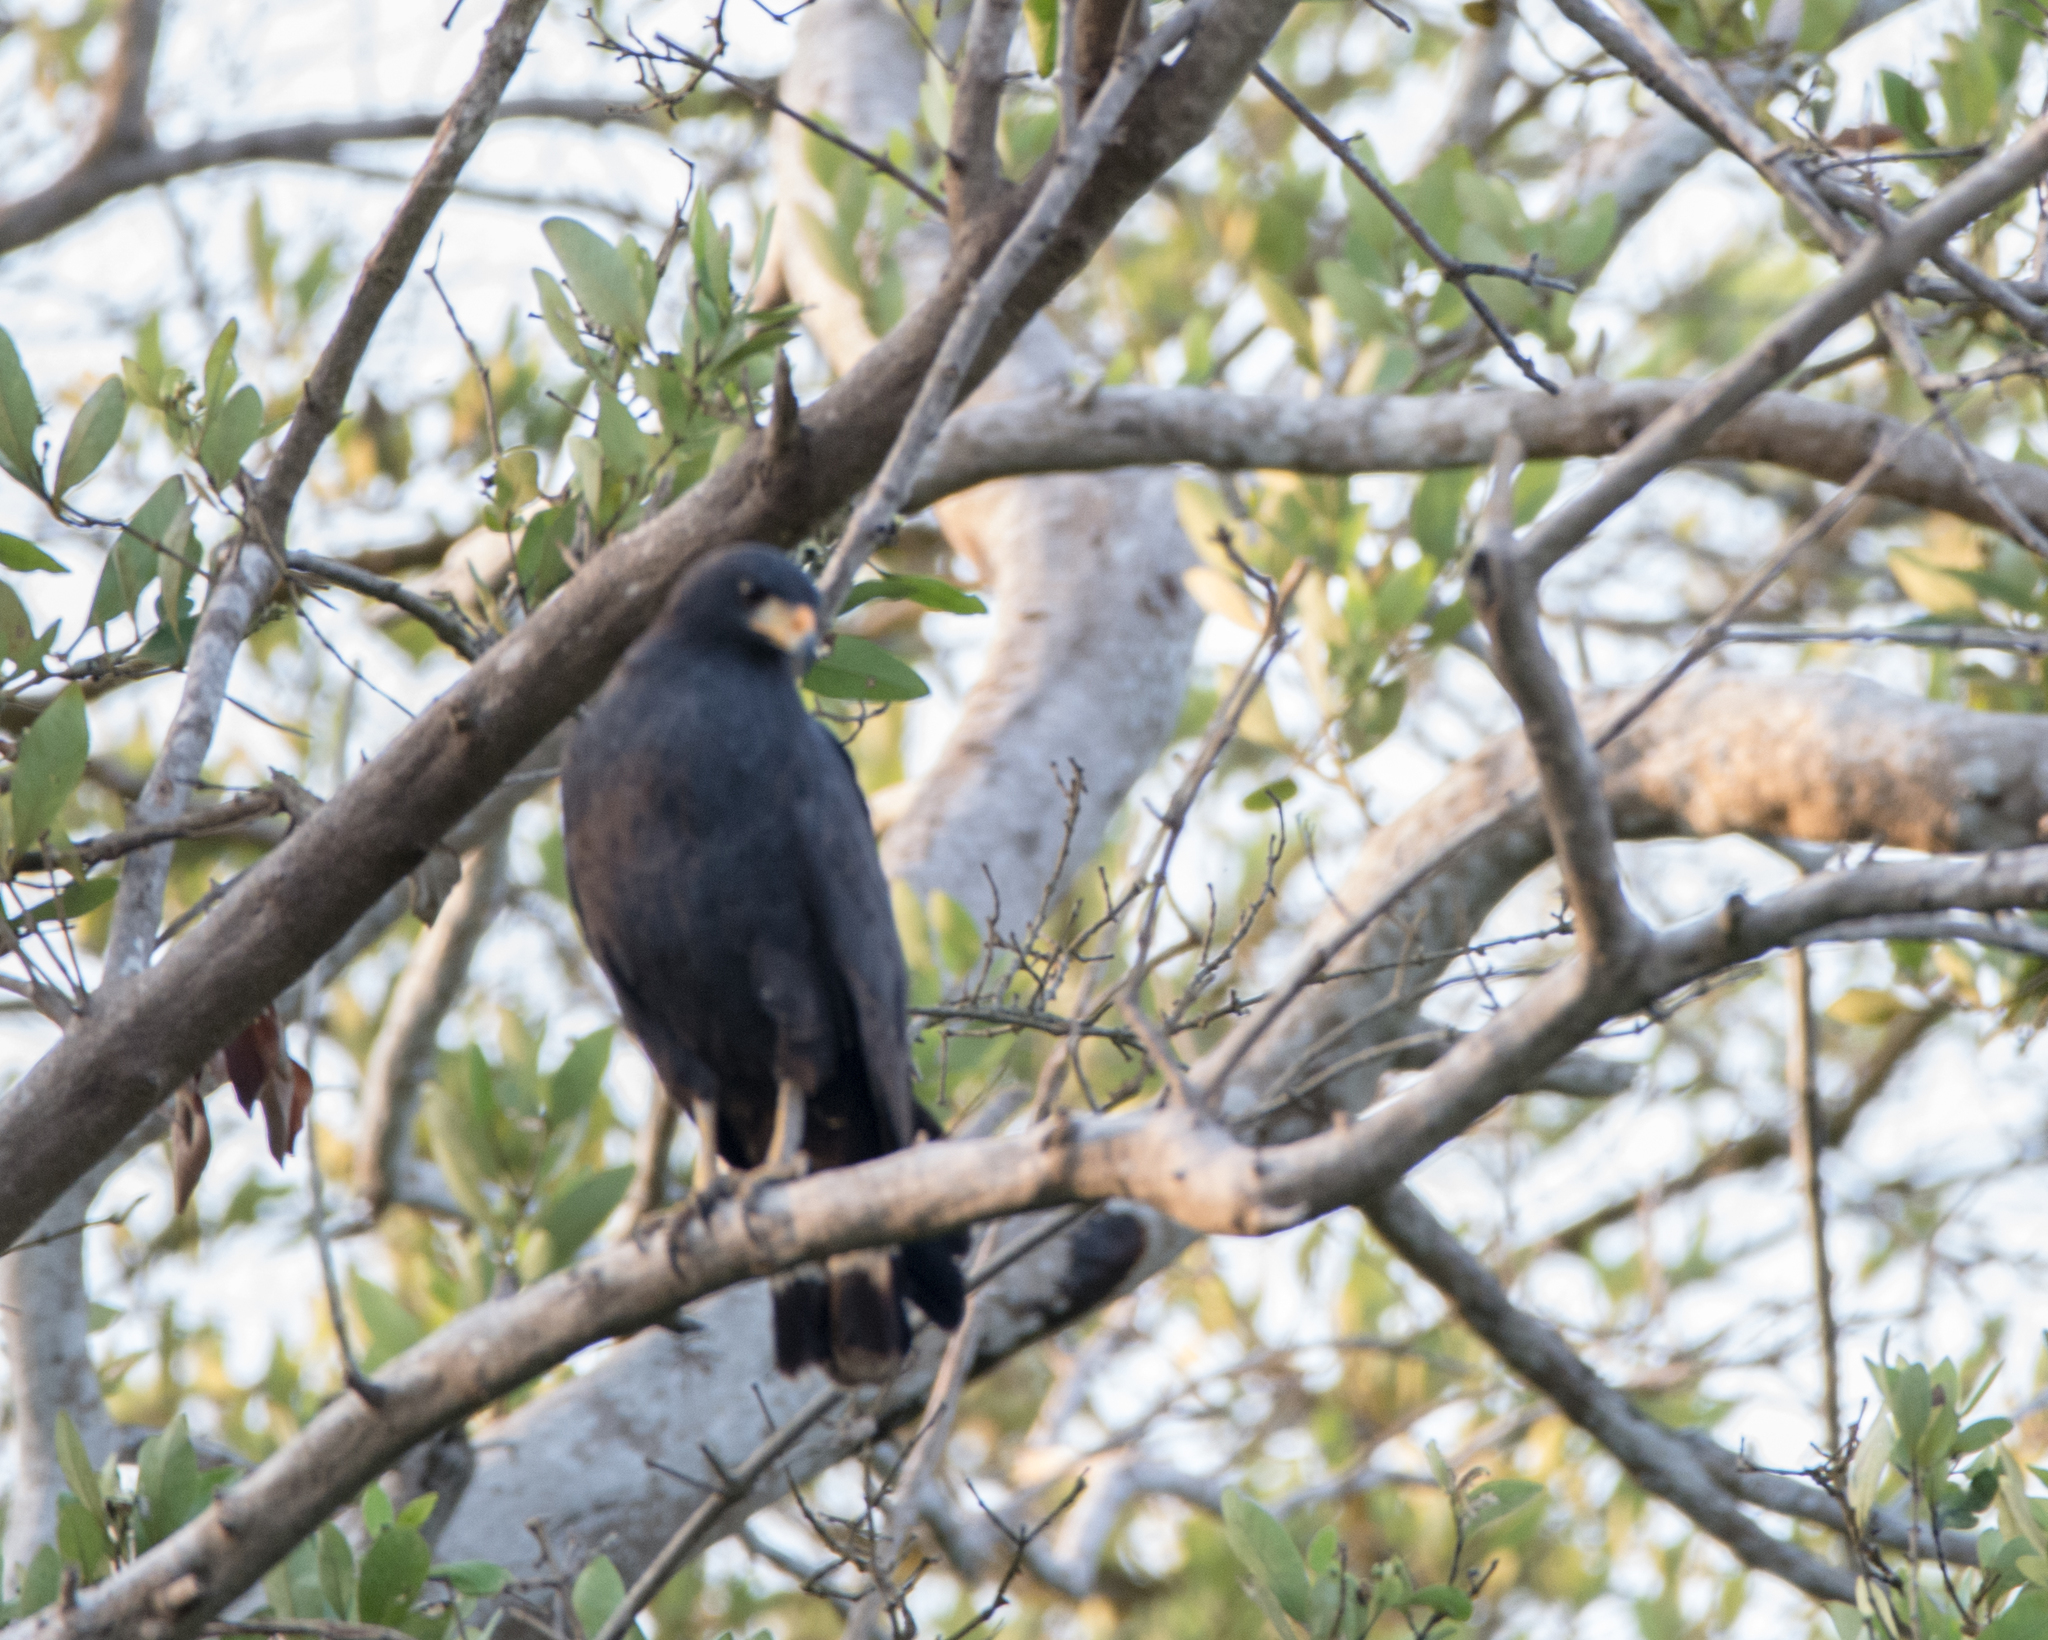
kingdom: Animalia
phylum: Chordata
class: Aves
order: Accipitriformes
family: Accipitridae
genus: Buteogallus
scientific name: Buteogallus anthracinus
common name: Common black hawk
